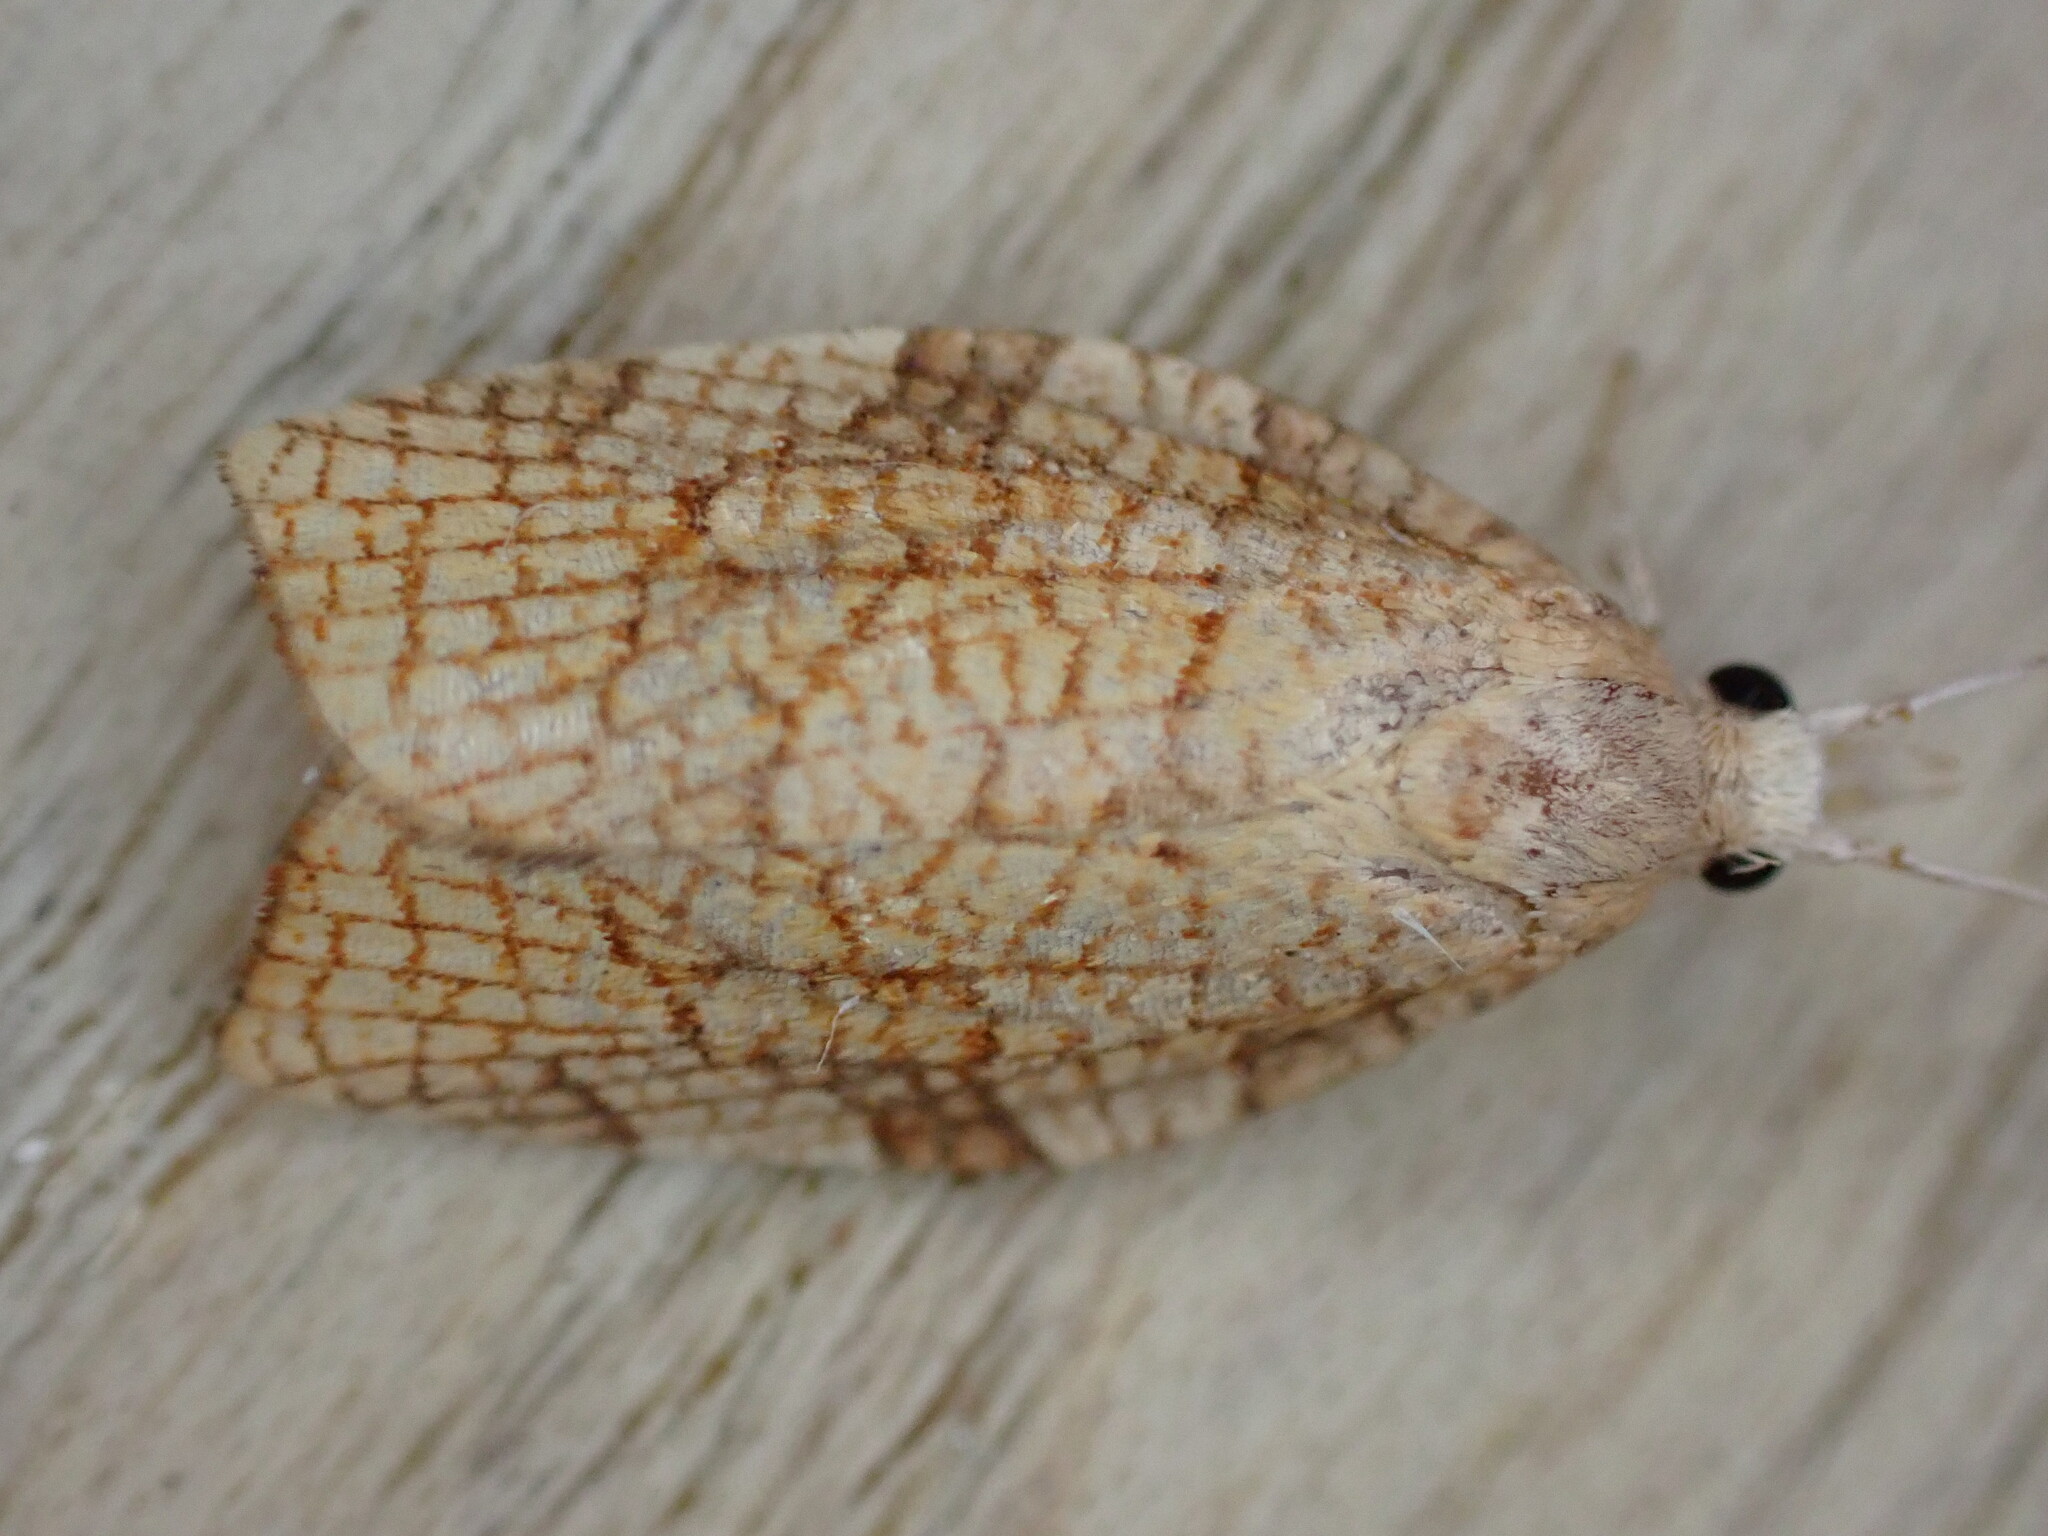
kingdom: Animalia
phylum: Arthropoda
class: Insecta
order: Lepidoptera
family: Tortricidae
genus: Pandemis
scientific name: Pandemis corylana
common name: Chequered fruit-tree tortrix
